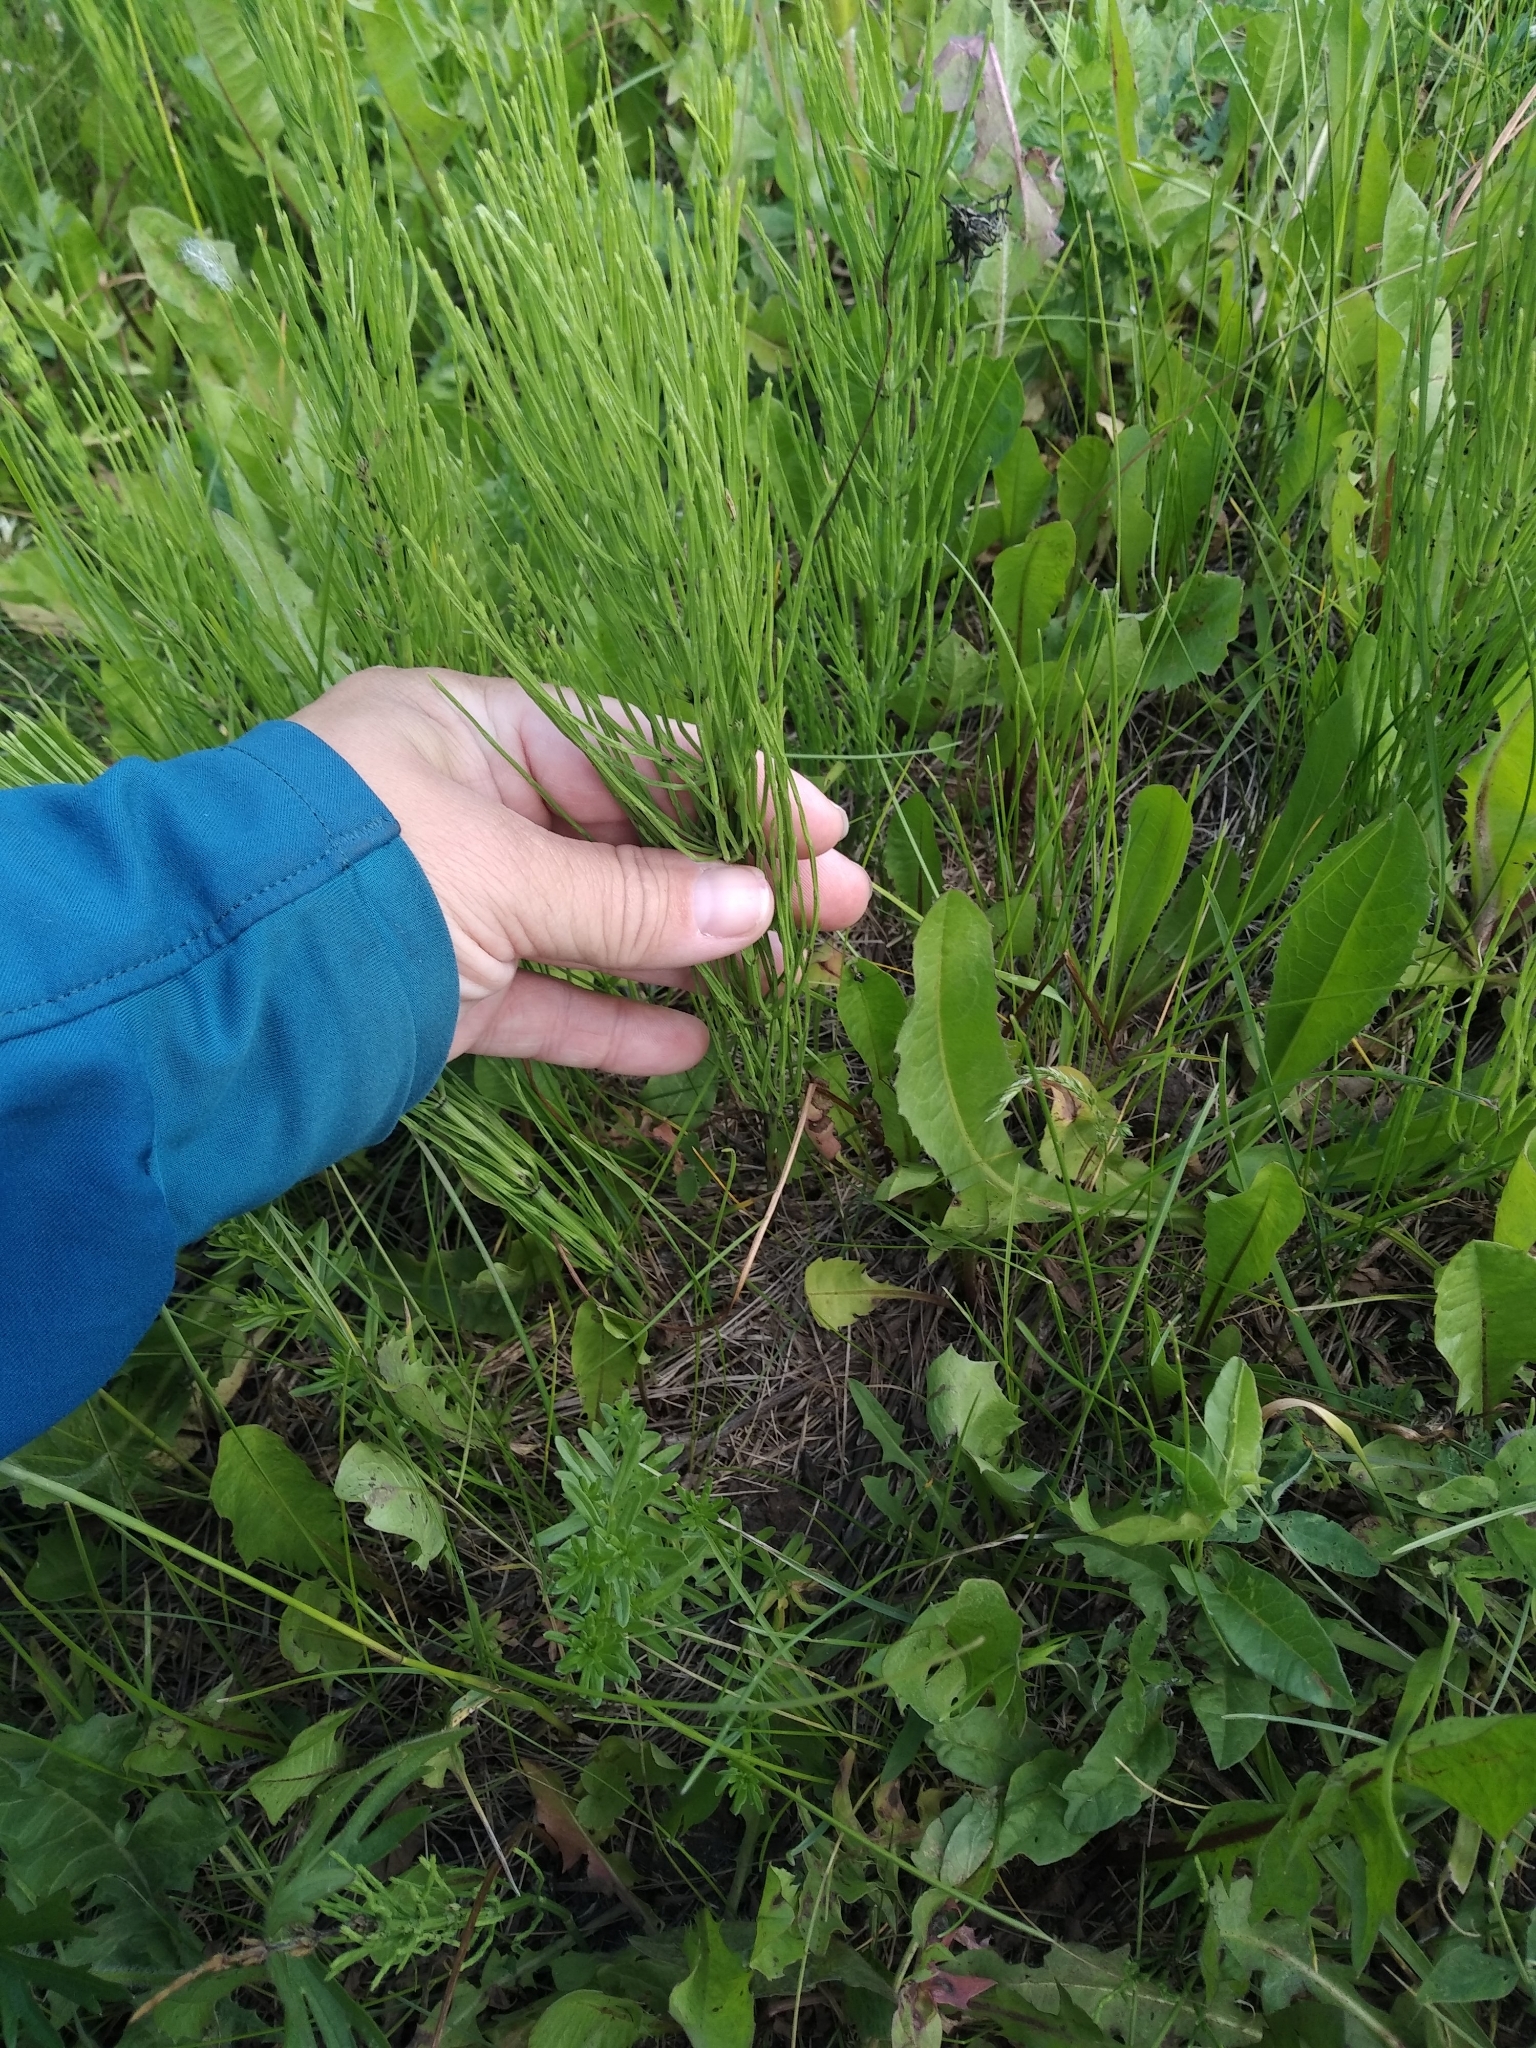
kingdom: Plantae
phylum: Tracheophyta
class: Polypodiopsida
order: Equisetales
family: Equisetaceae
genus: Equisetum
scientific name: Equisetum arvense
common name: Field horsetail
